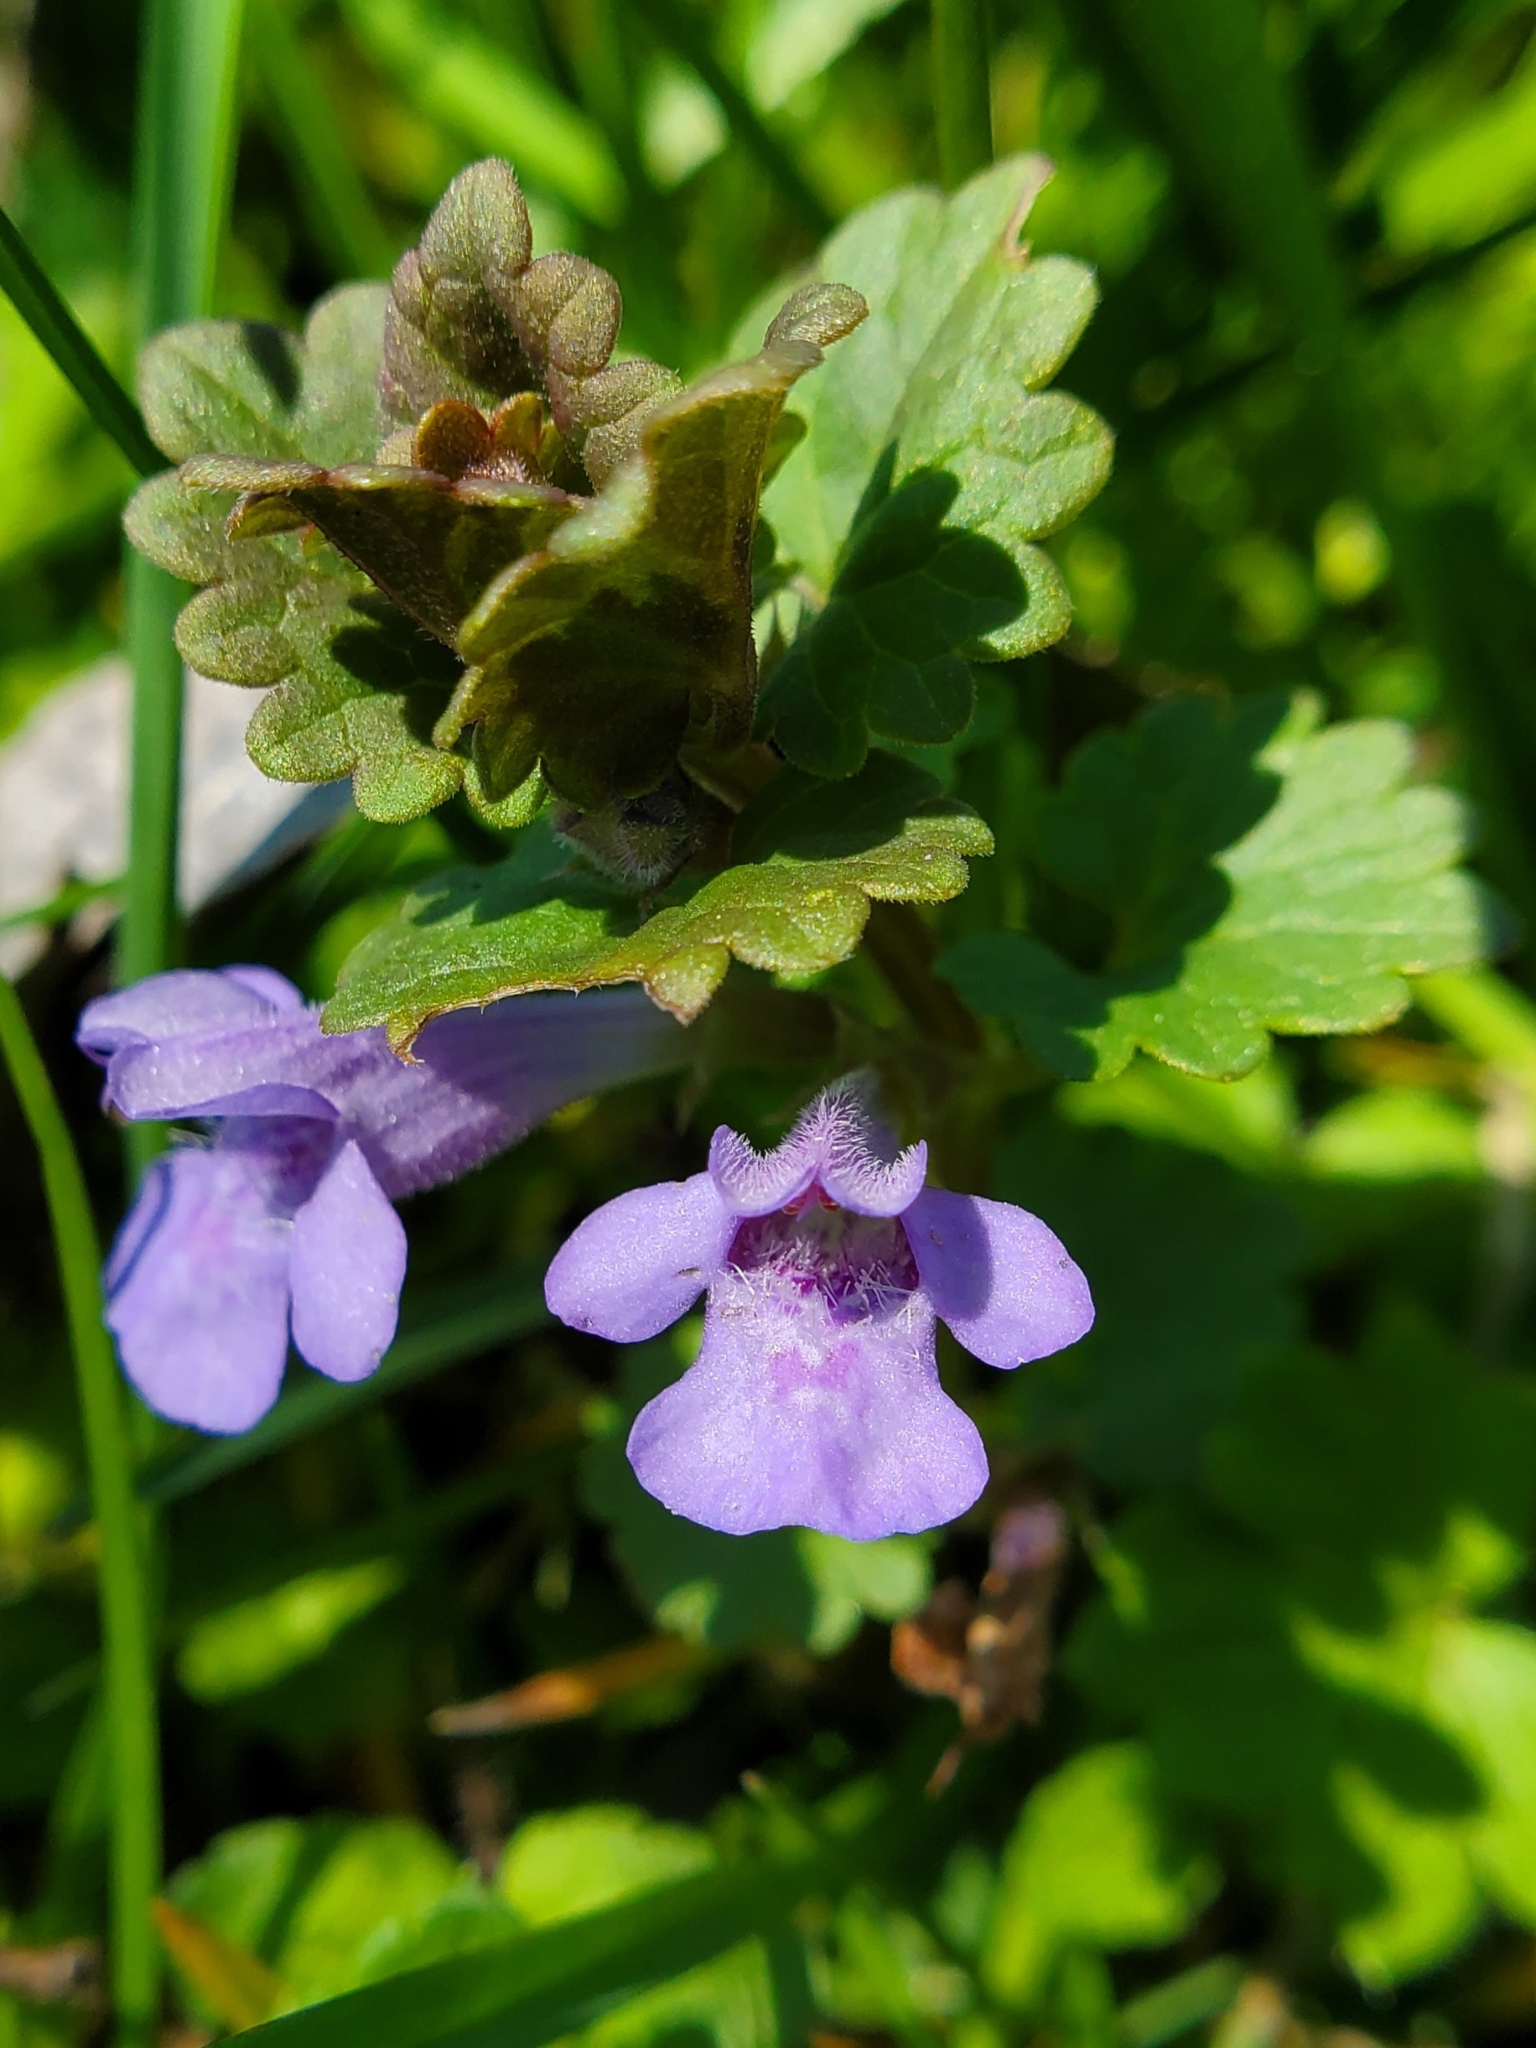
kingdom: Plantae
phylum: Tracheophyta
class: Magnoliopsida
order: Lamiales
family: Lamiaceae
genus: Glechoma
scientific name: Glechoma hederacea
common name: Ground ivy
